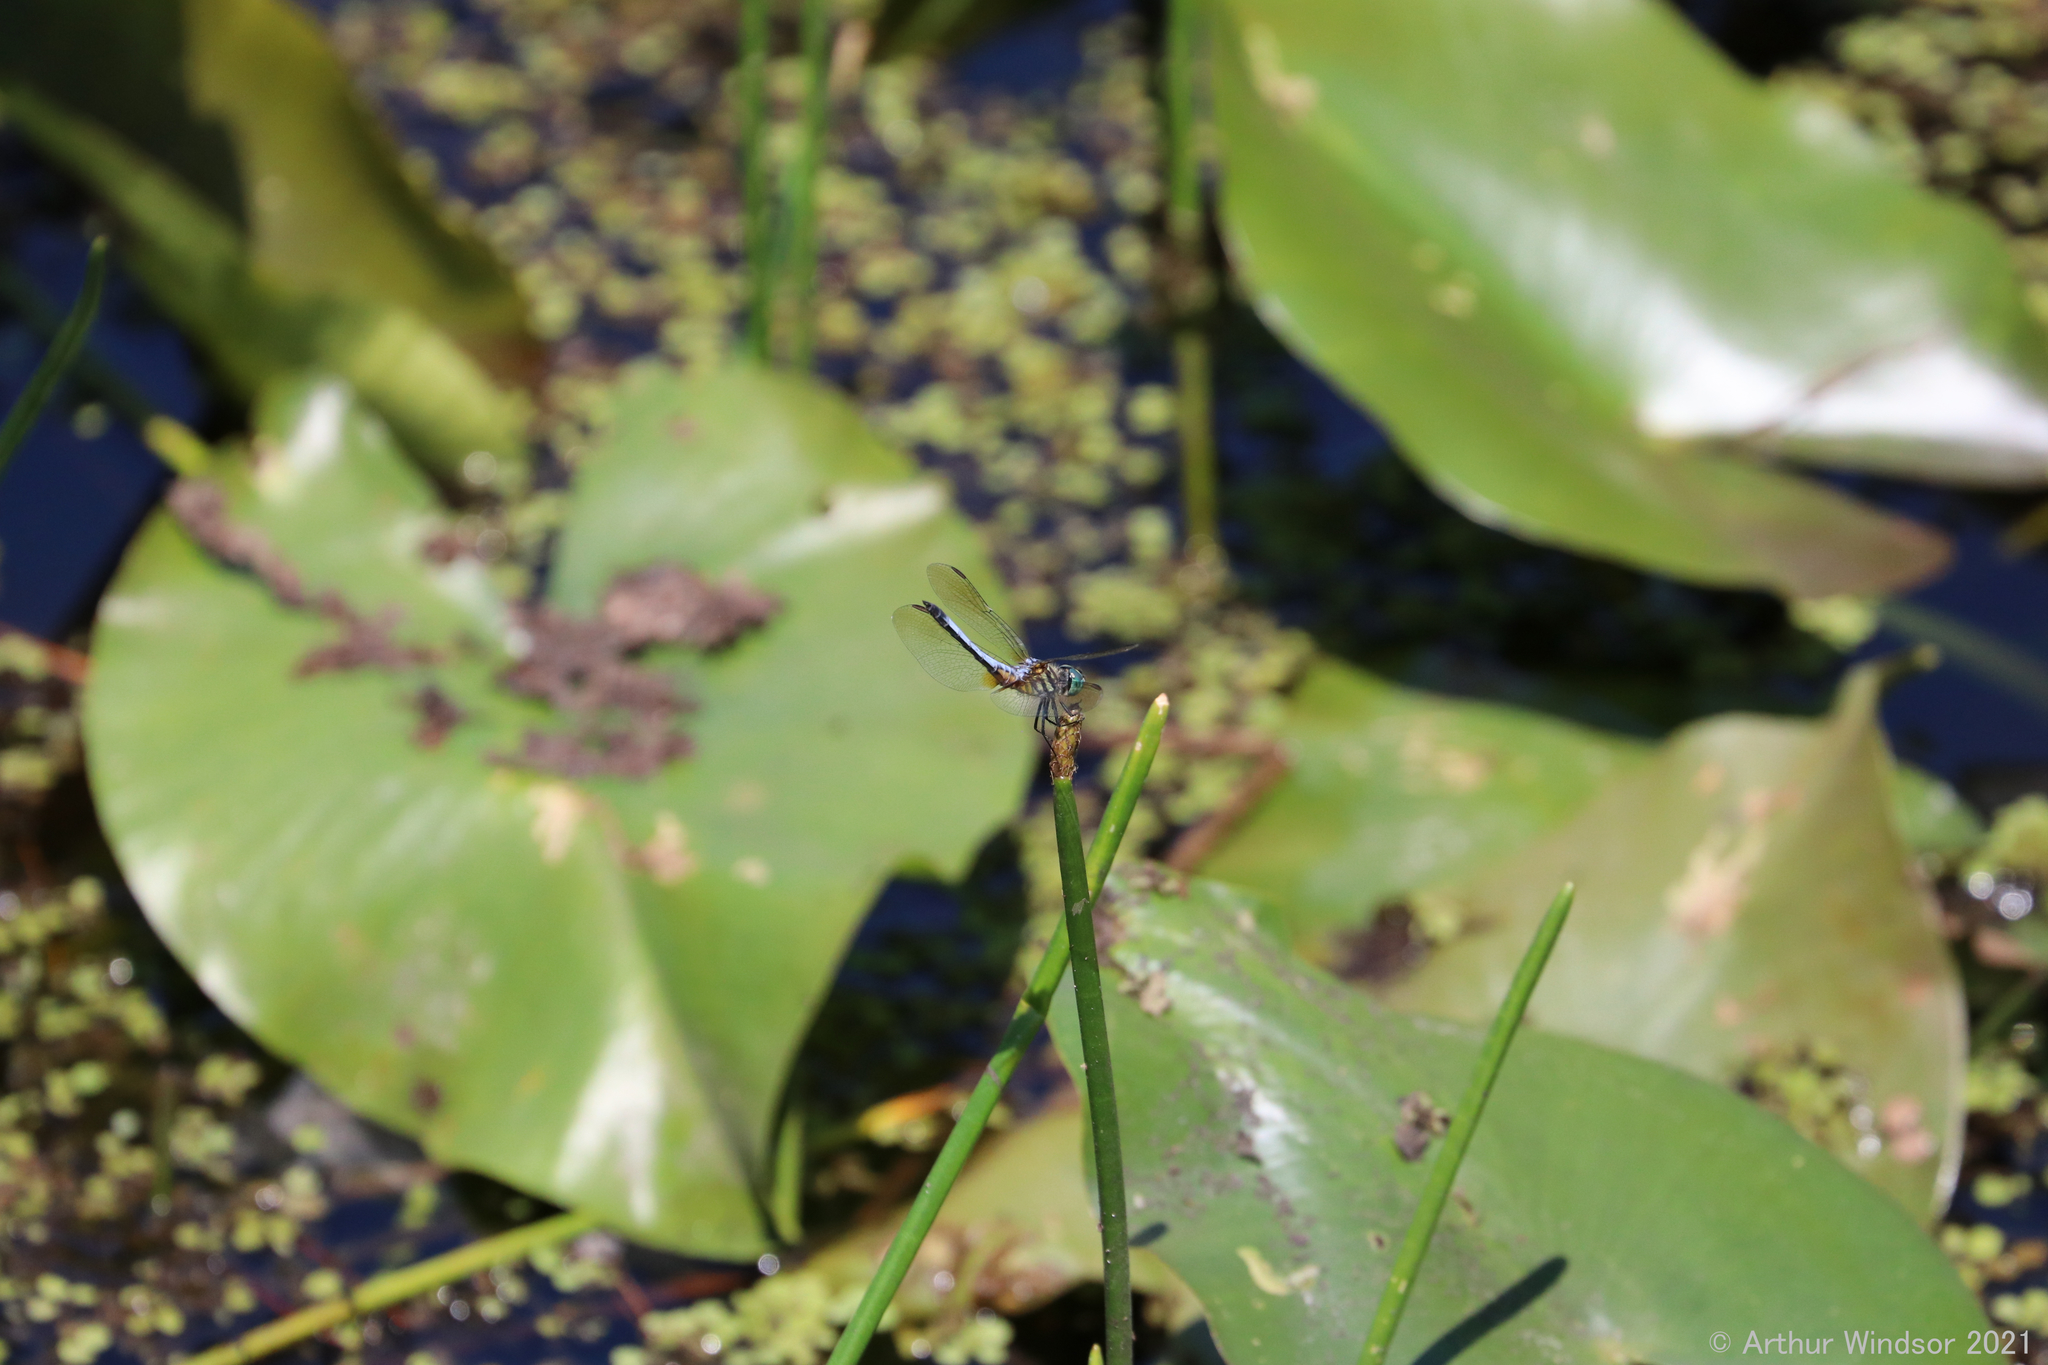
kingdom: Animalia
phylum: Arthropoda
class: Insecta
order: Odonata
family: Libellulidae
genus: Pachydiplax
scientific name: Pachydiplax longipennis
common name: Blue dasher
